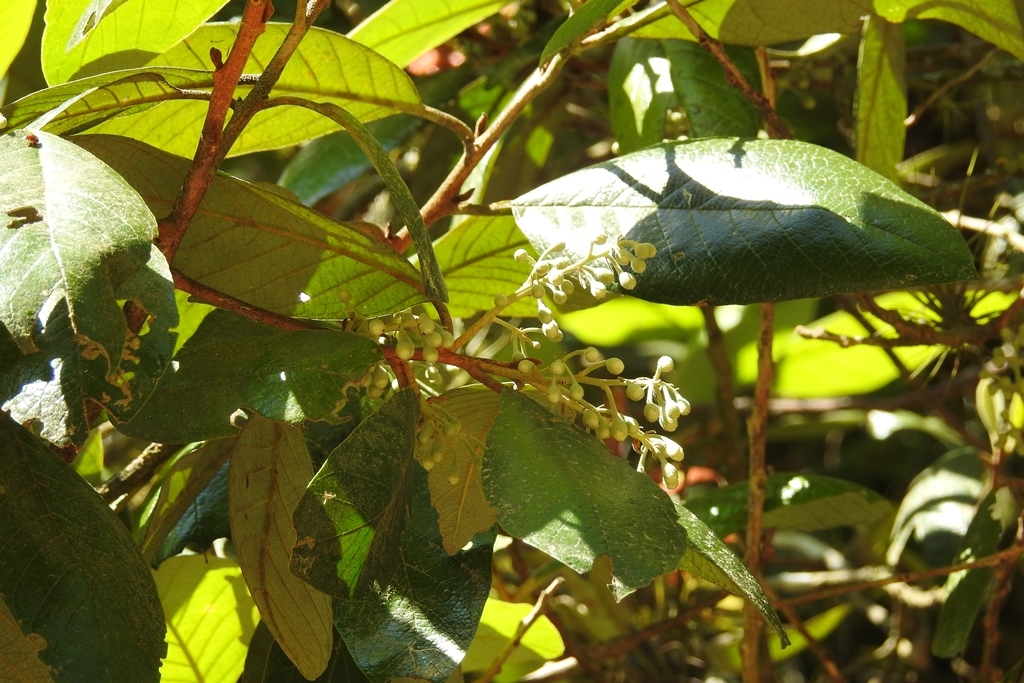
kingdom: Plantae
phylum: Tracheophyta
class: Magnoliopsida
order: Ericales
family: Styracaceae
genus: Styrax
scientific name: Styrax magnus
